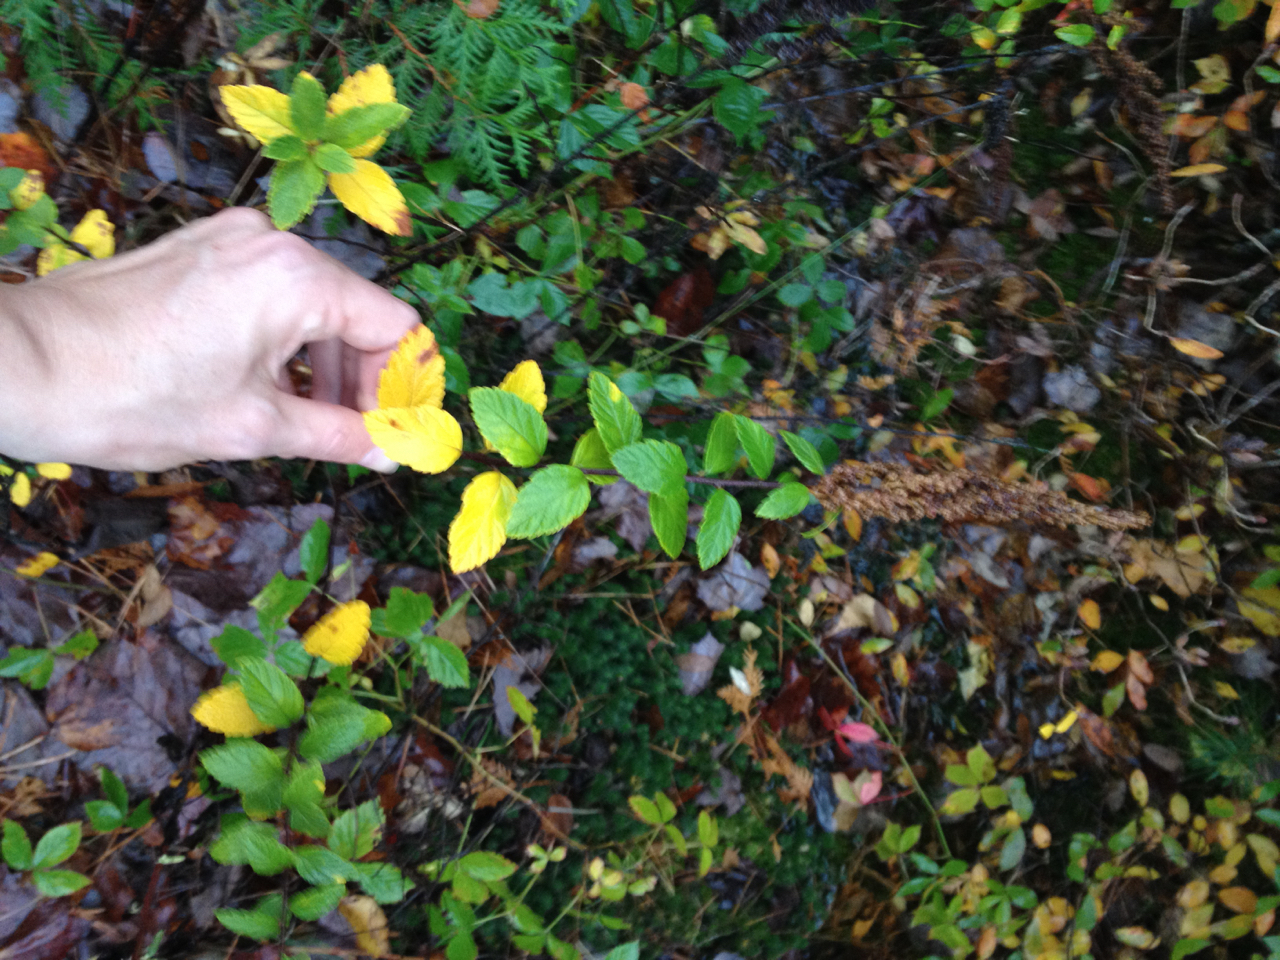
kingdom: Plantae
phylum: Tracheophyta
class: Magnoliopsida
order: Rosales
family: Rosaceae
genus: Spiraea
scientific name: Spiraea tomentosa
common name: Hardhack
